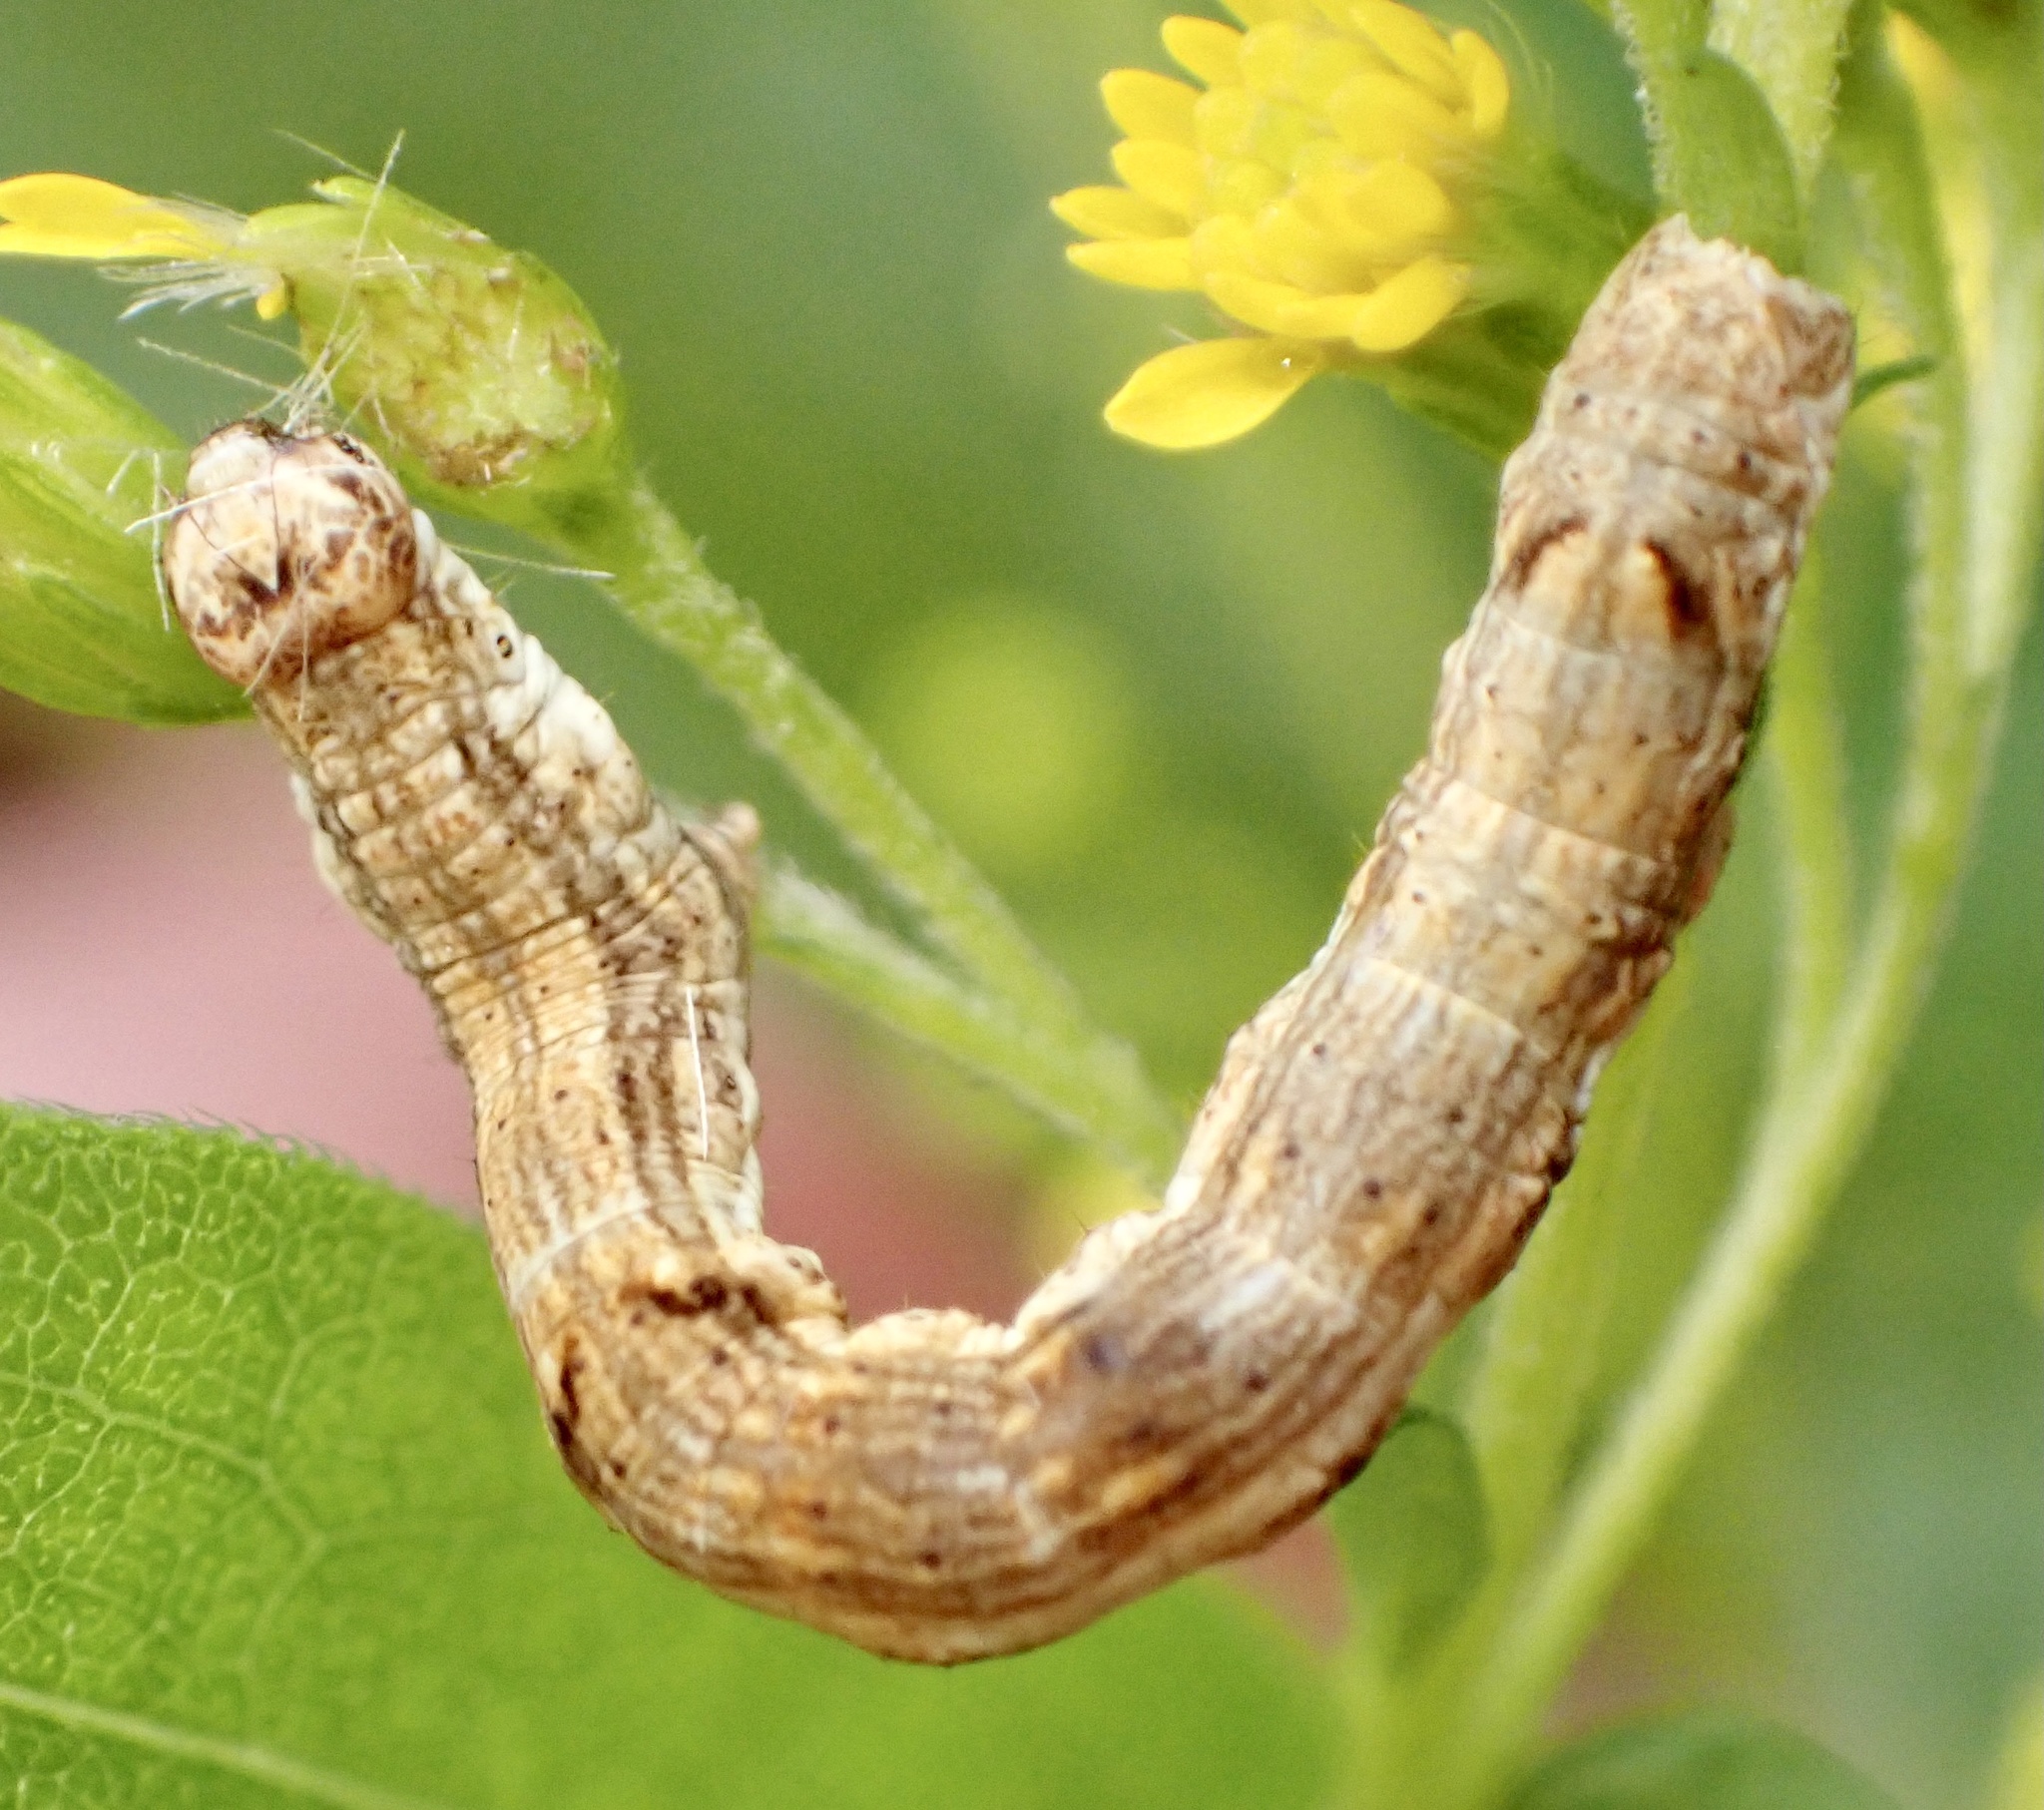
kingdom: Animalia
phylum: Arthropoda
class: Insecta
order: Lepidoptera
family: Geometridae
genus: Ectropis
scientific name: Ectropis crepuscularia
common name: Engrailed
